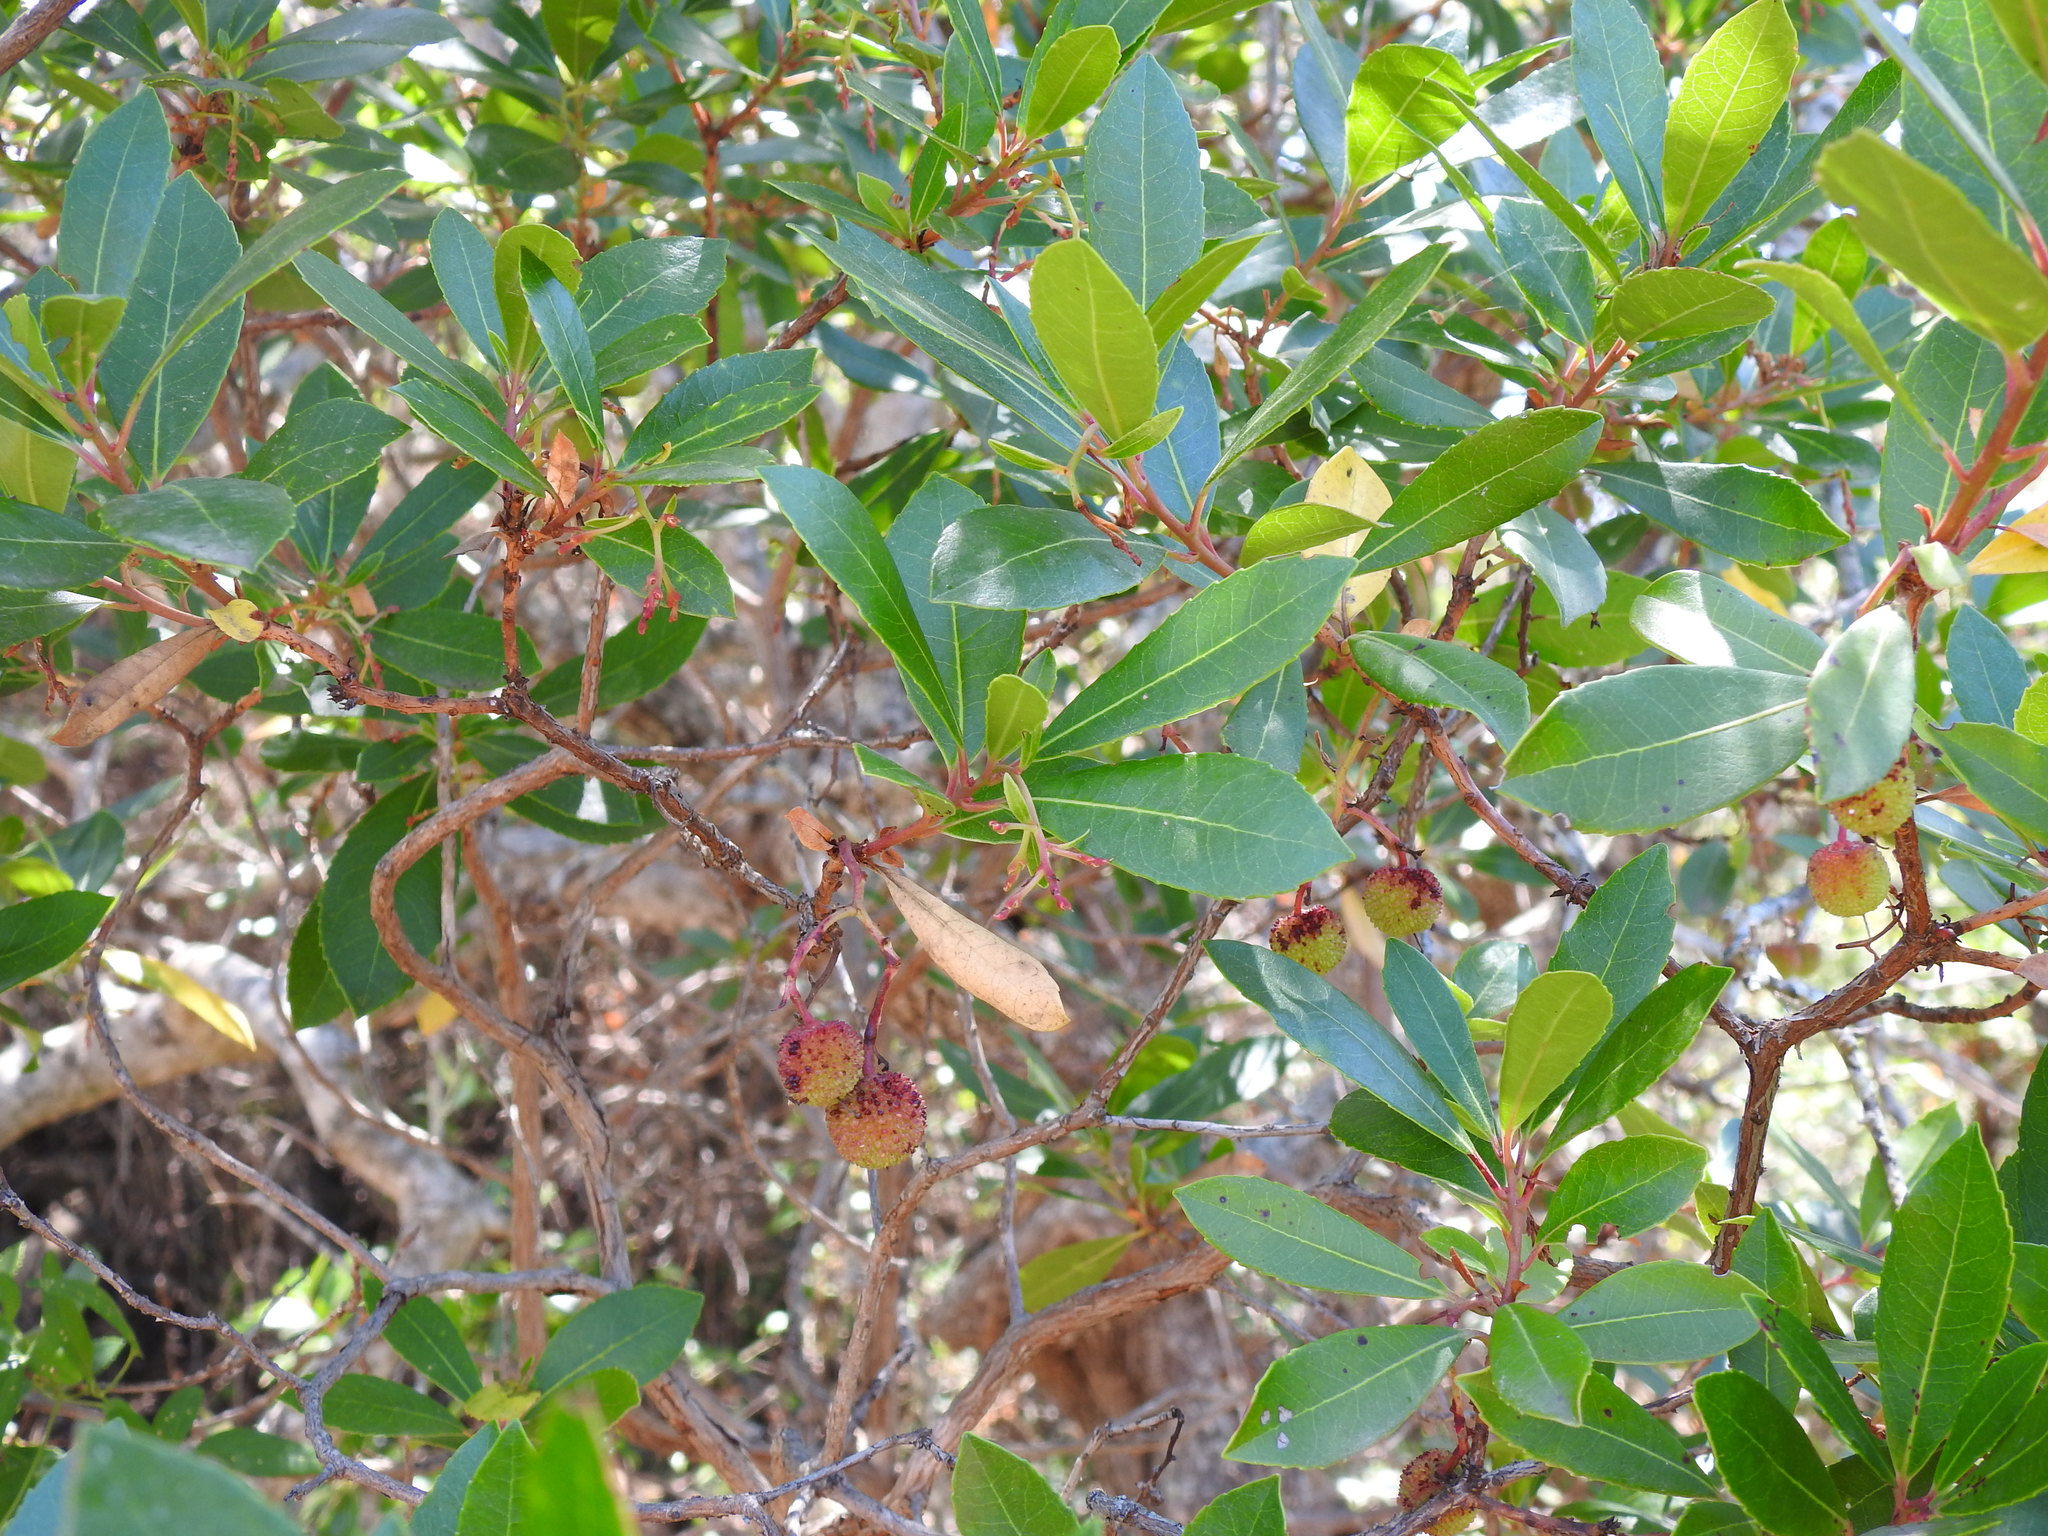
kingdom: Plantae
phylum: Tracheophyta
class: Magnoliopsida
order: Ericales
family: Ericaceae
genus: Arbutus
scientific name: Arbutus unedo
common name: Strawberry-tree
